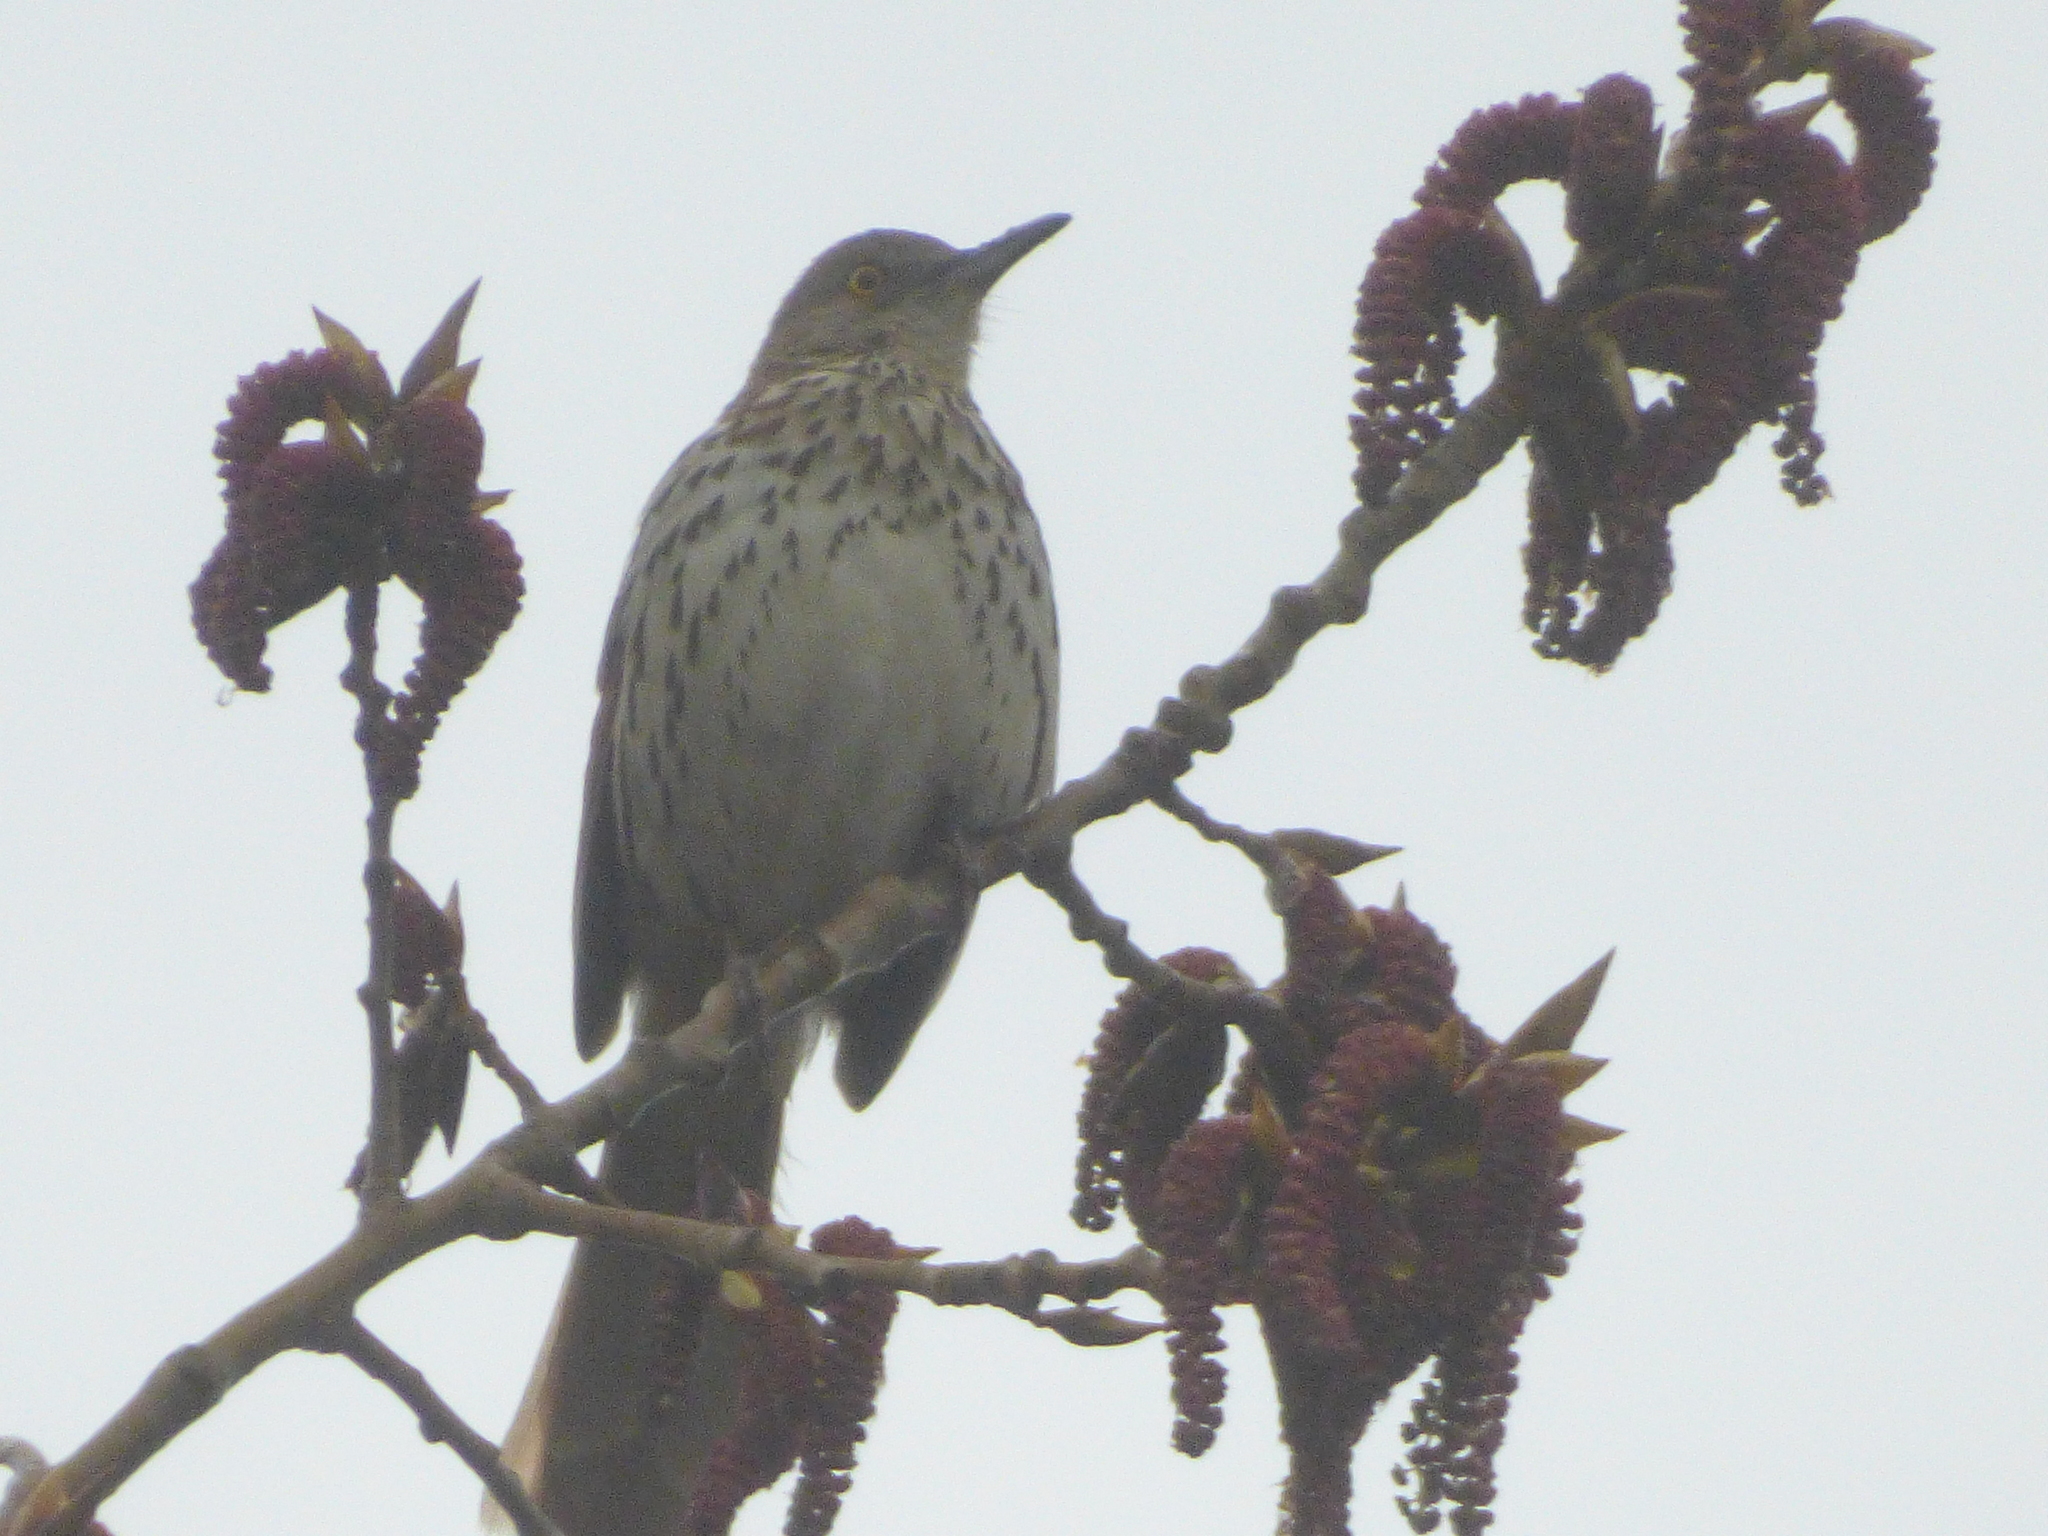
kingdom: Animalia
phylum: Chordata
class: Aves
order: Passeriformes
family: Mimidae
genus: Toxostoma
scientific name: Toxostoma rufum
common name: Brown thrasher
